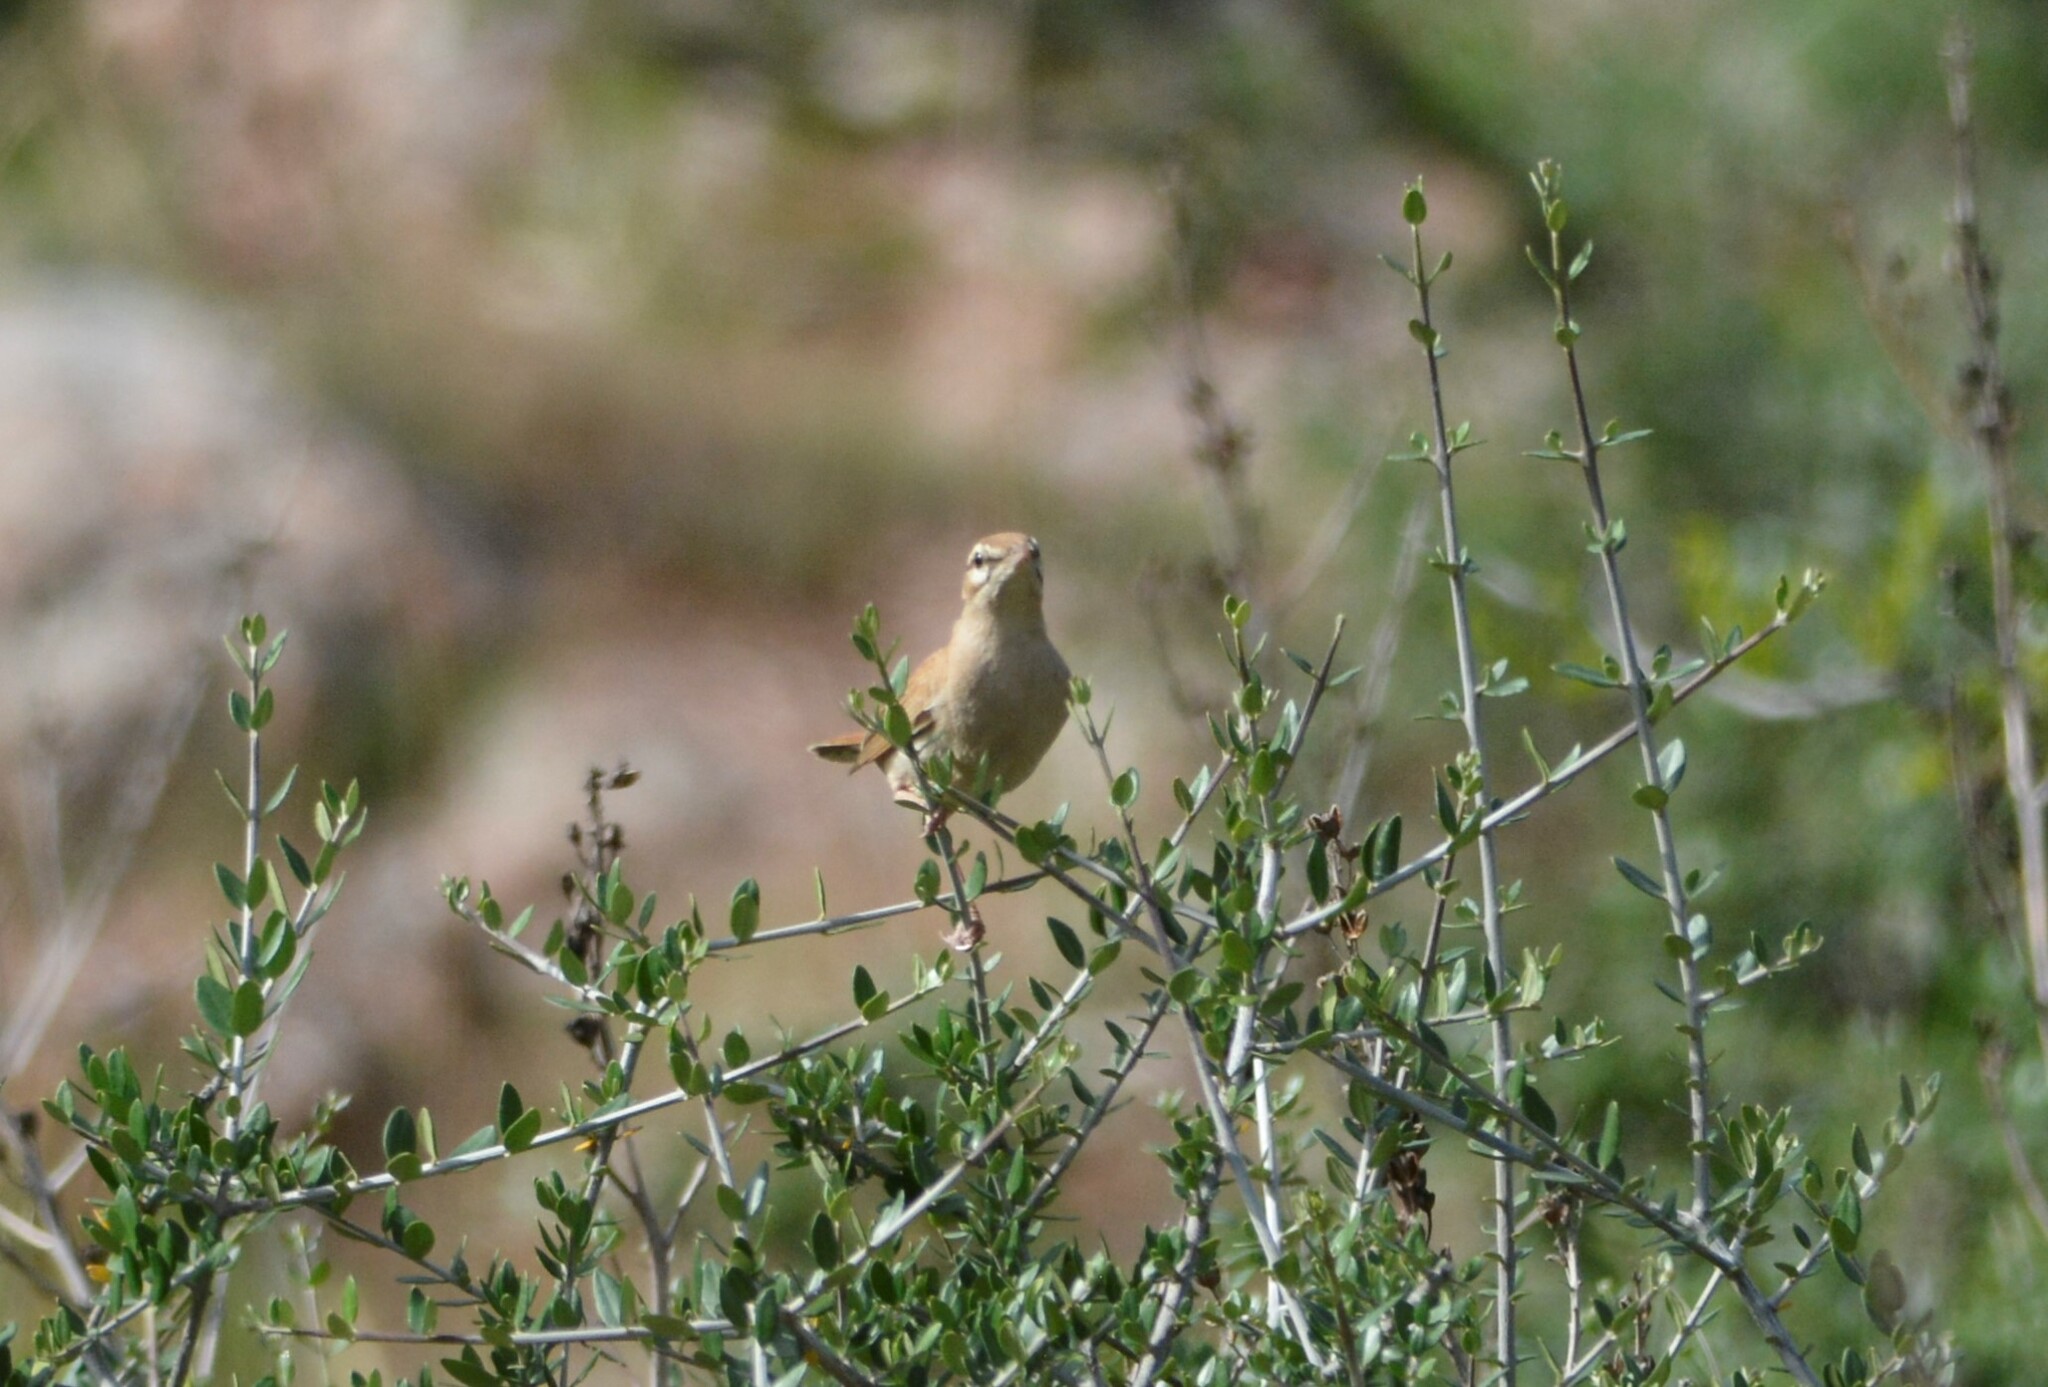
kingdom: Animalia
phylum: Chordata
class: Aves
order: Passeriformes
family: Muscicapidae
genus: Erythropygia
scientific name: Erythropygia galactotes
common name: Rufous-tailed scrub robin
